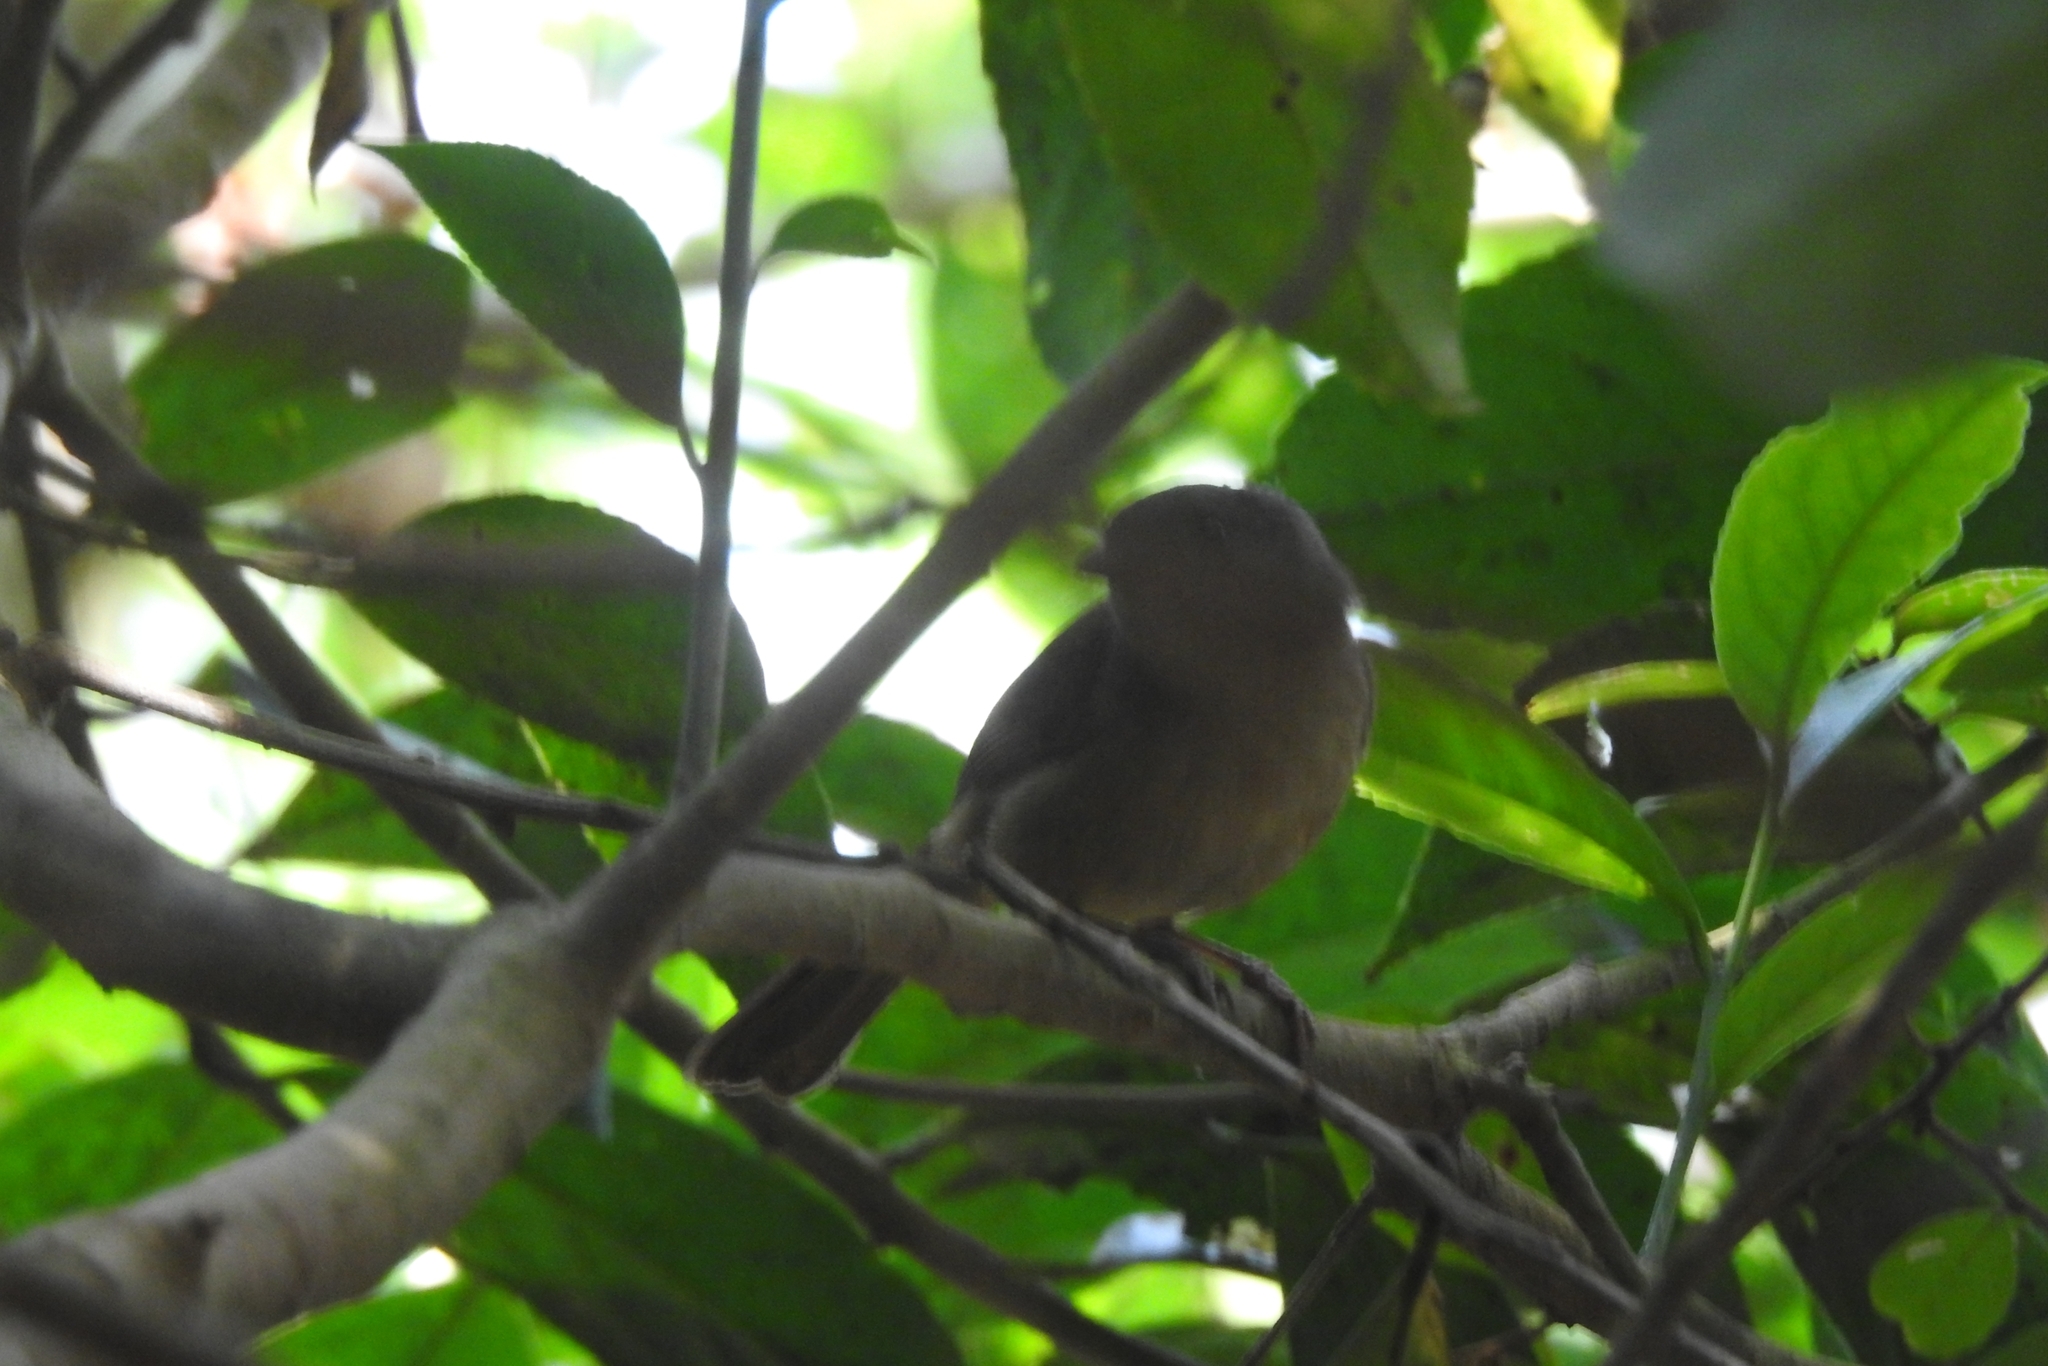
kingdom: Animalia
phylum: Chordata
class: Aves
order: Passeriformes
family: Pellorneidae
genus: Alcippe
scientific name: Alcippe poioicephala
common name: Brown-cheeked fulvetta
